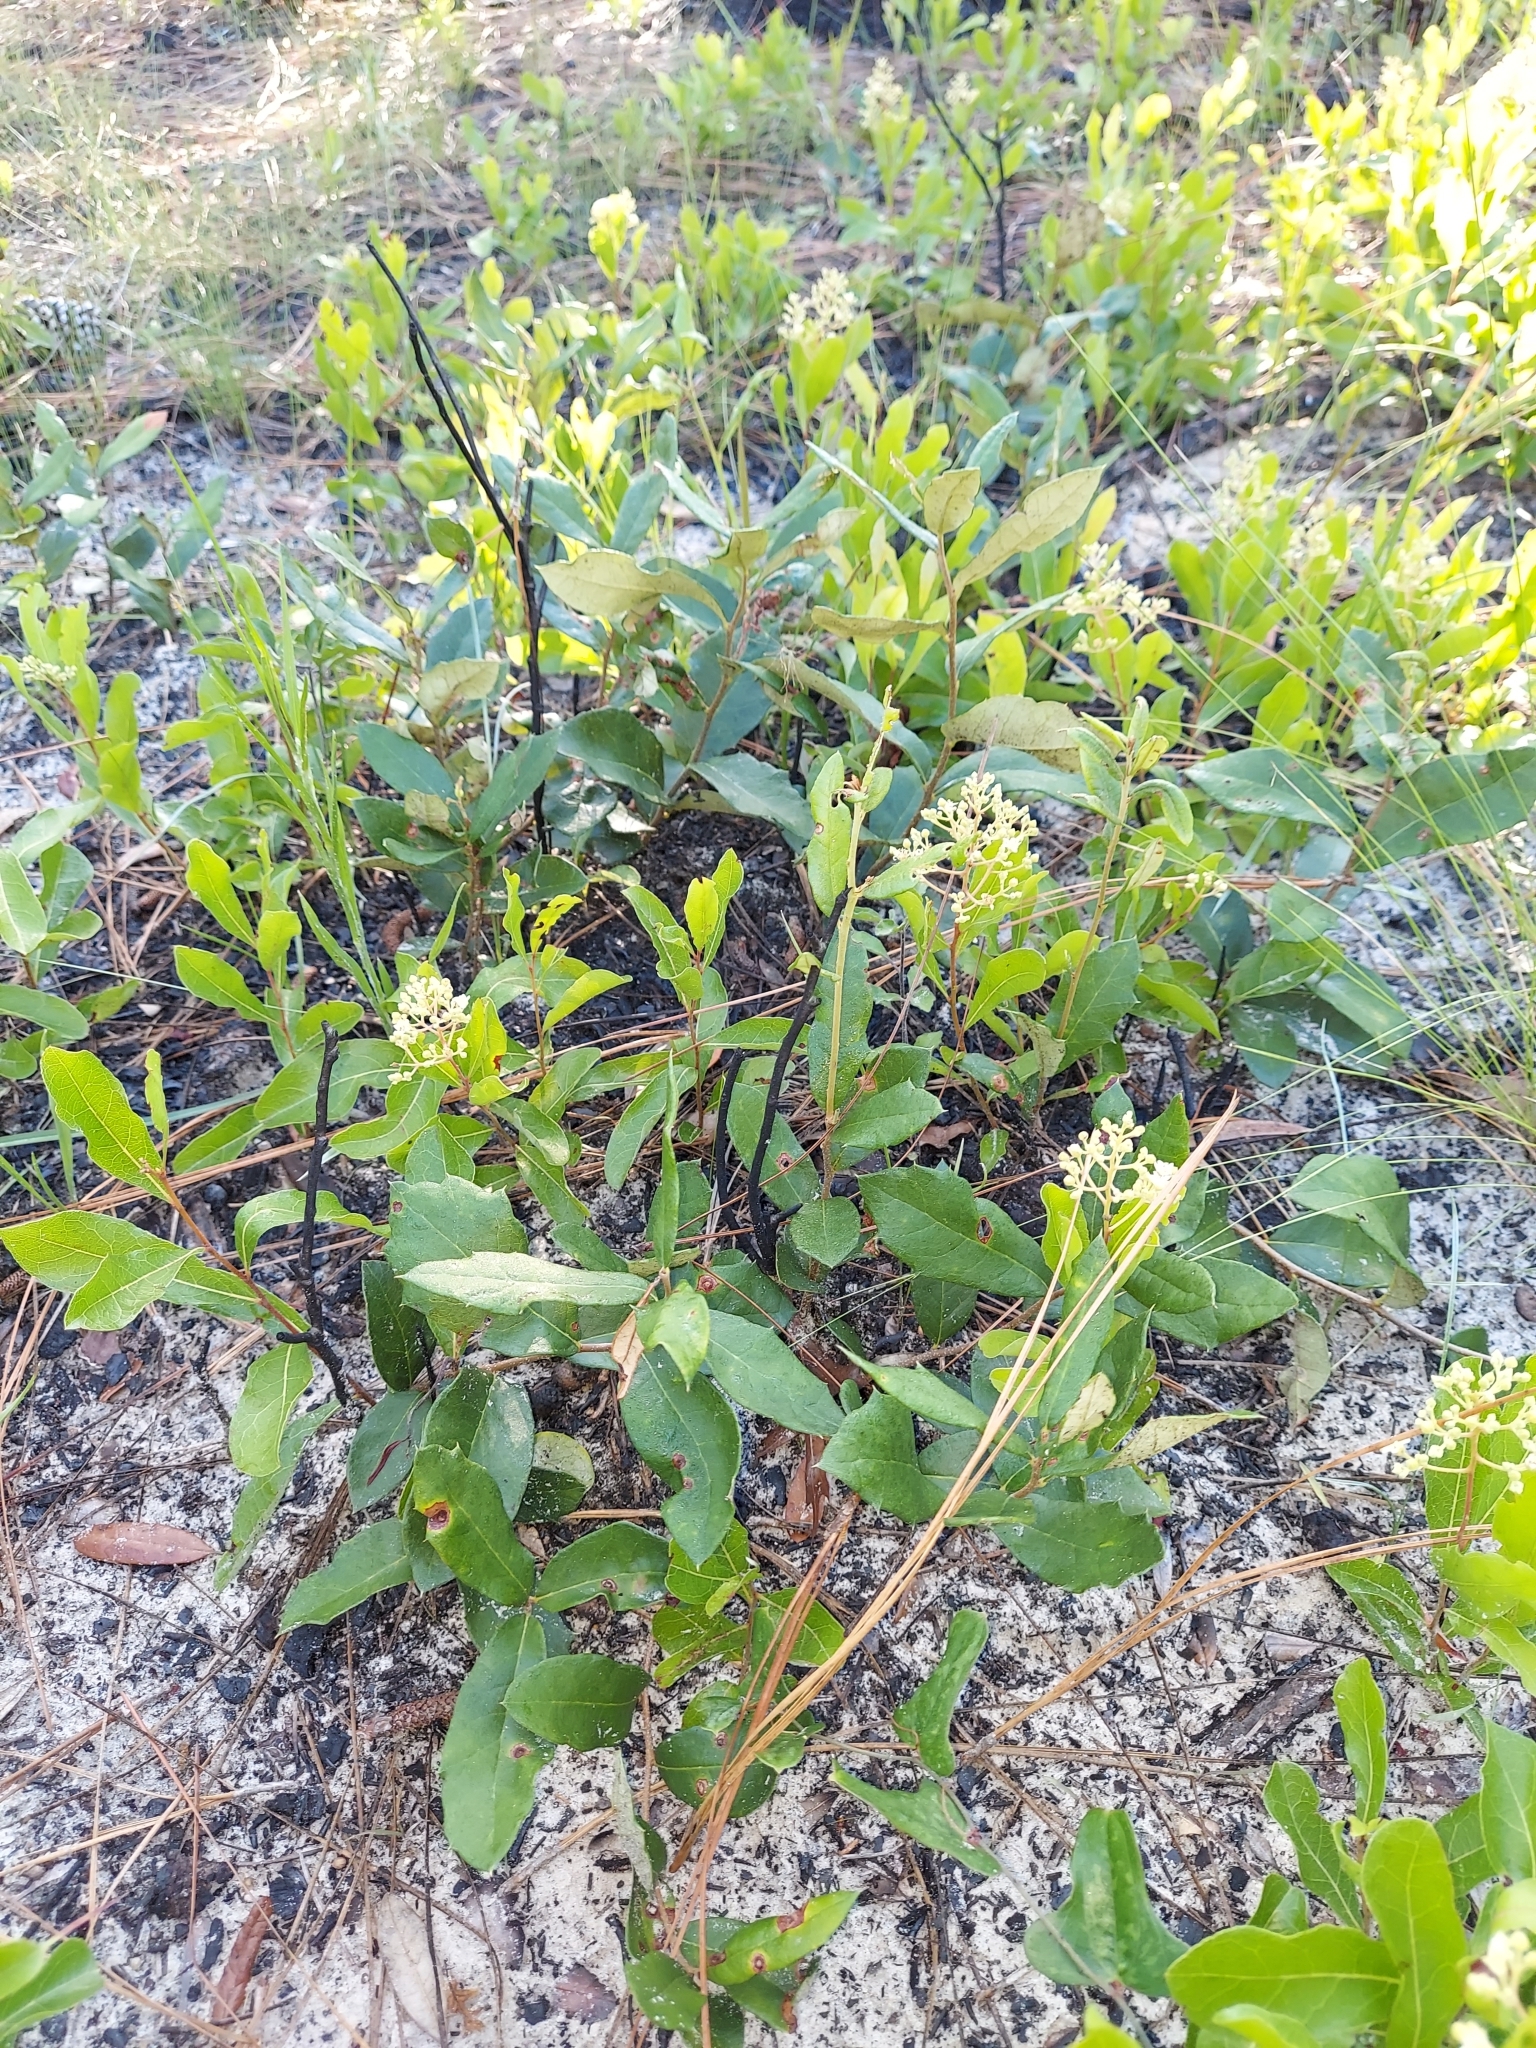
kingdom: Plantae
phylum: Tracheophyta
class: Magnoliopsida
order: Malpighiales
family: Chrysobalanaceae
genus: Geobalanus
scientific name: Geobalanus oblongifolius
